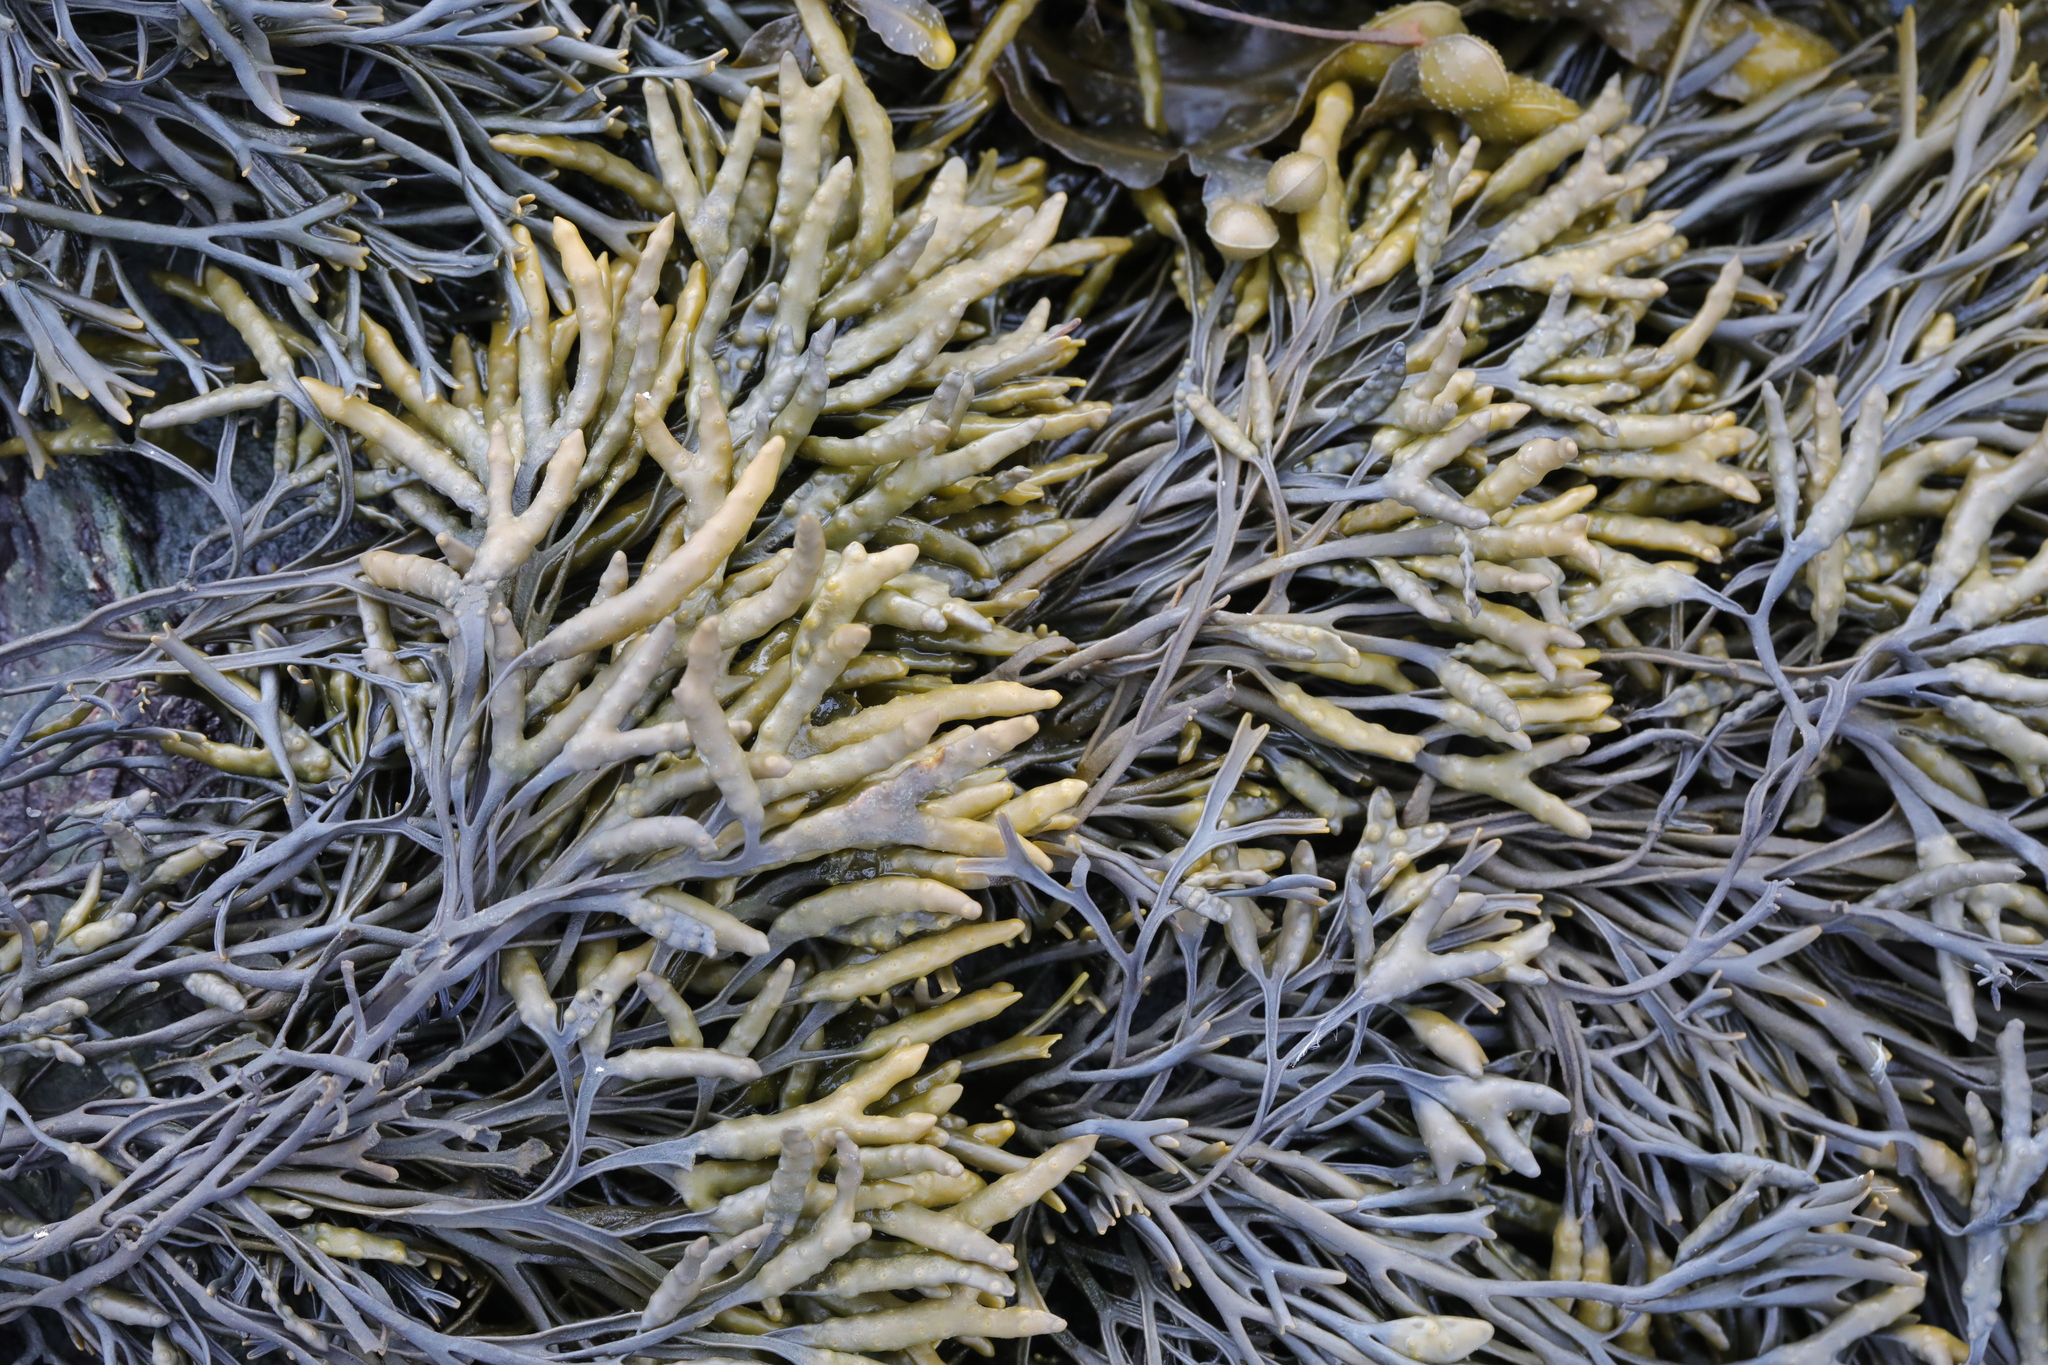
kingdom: Chromista
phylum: Ochrophyta
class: Phaeophyceae
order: Fucales
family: Fucaceae
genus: Pelvetia
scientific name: Pelvetia canaliculata
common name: Channelled wrack
